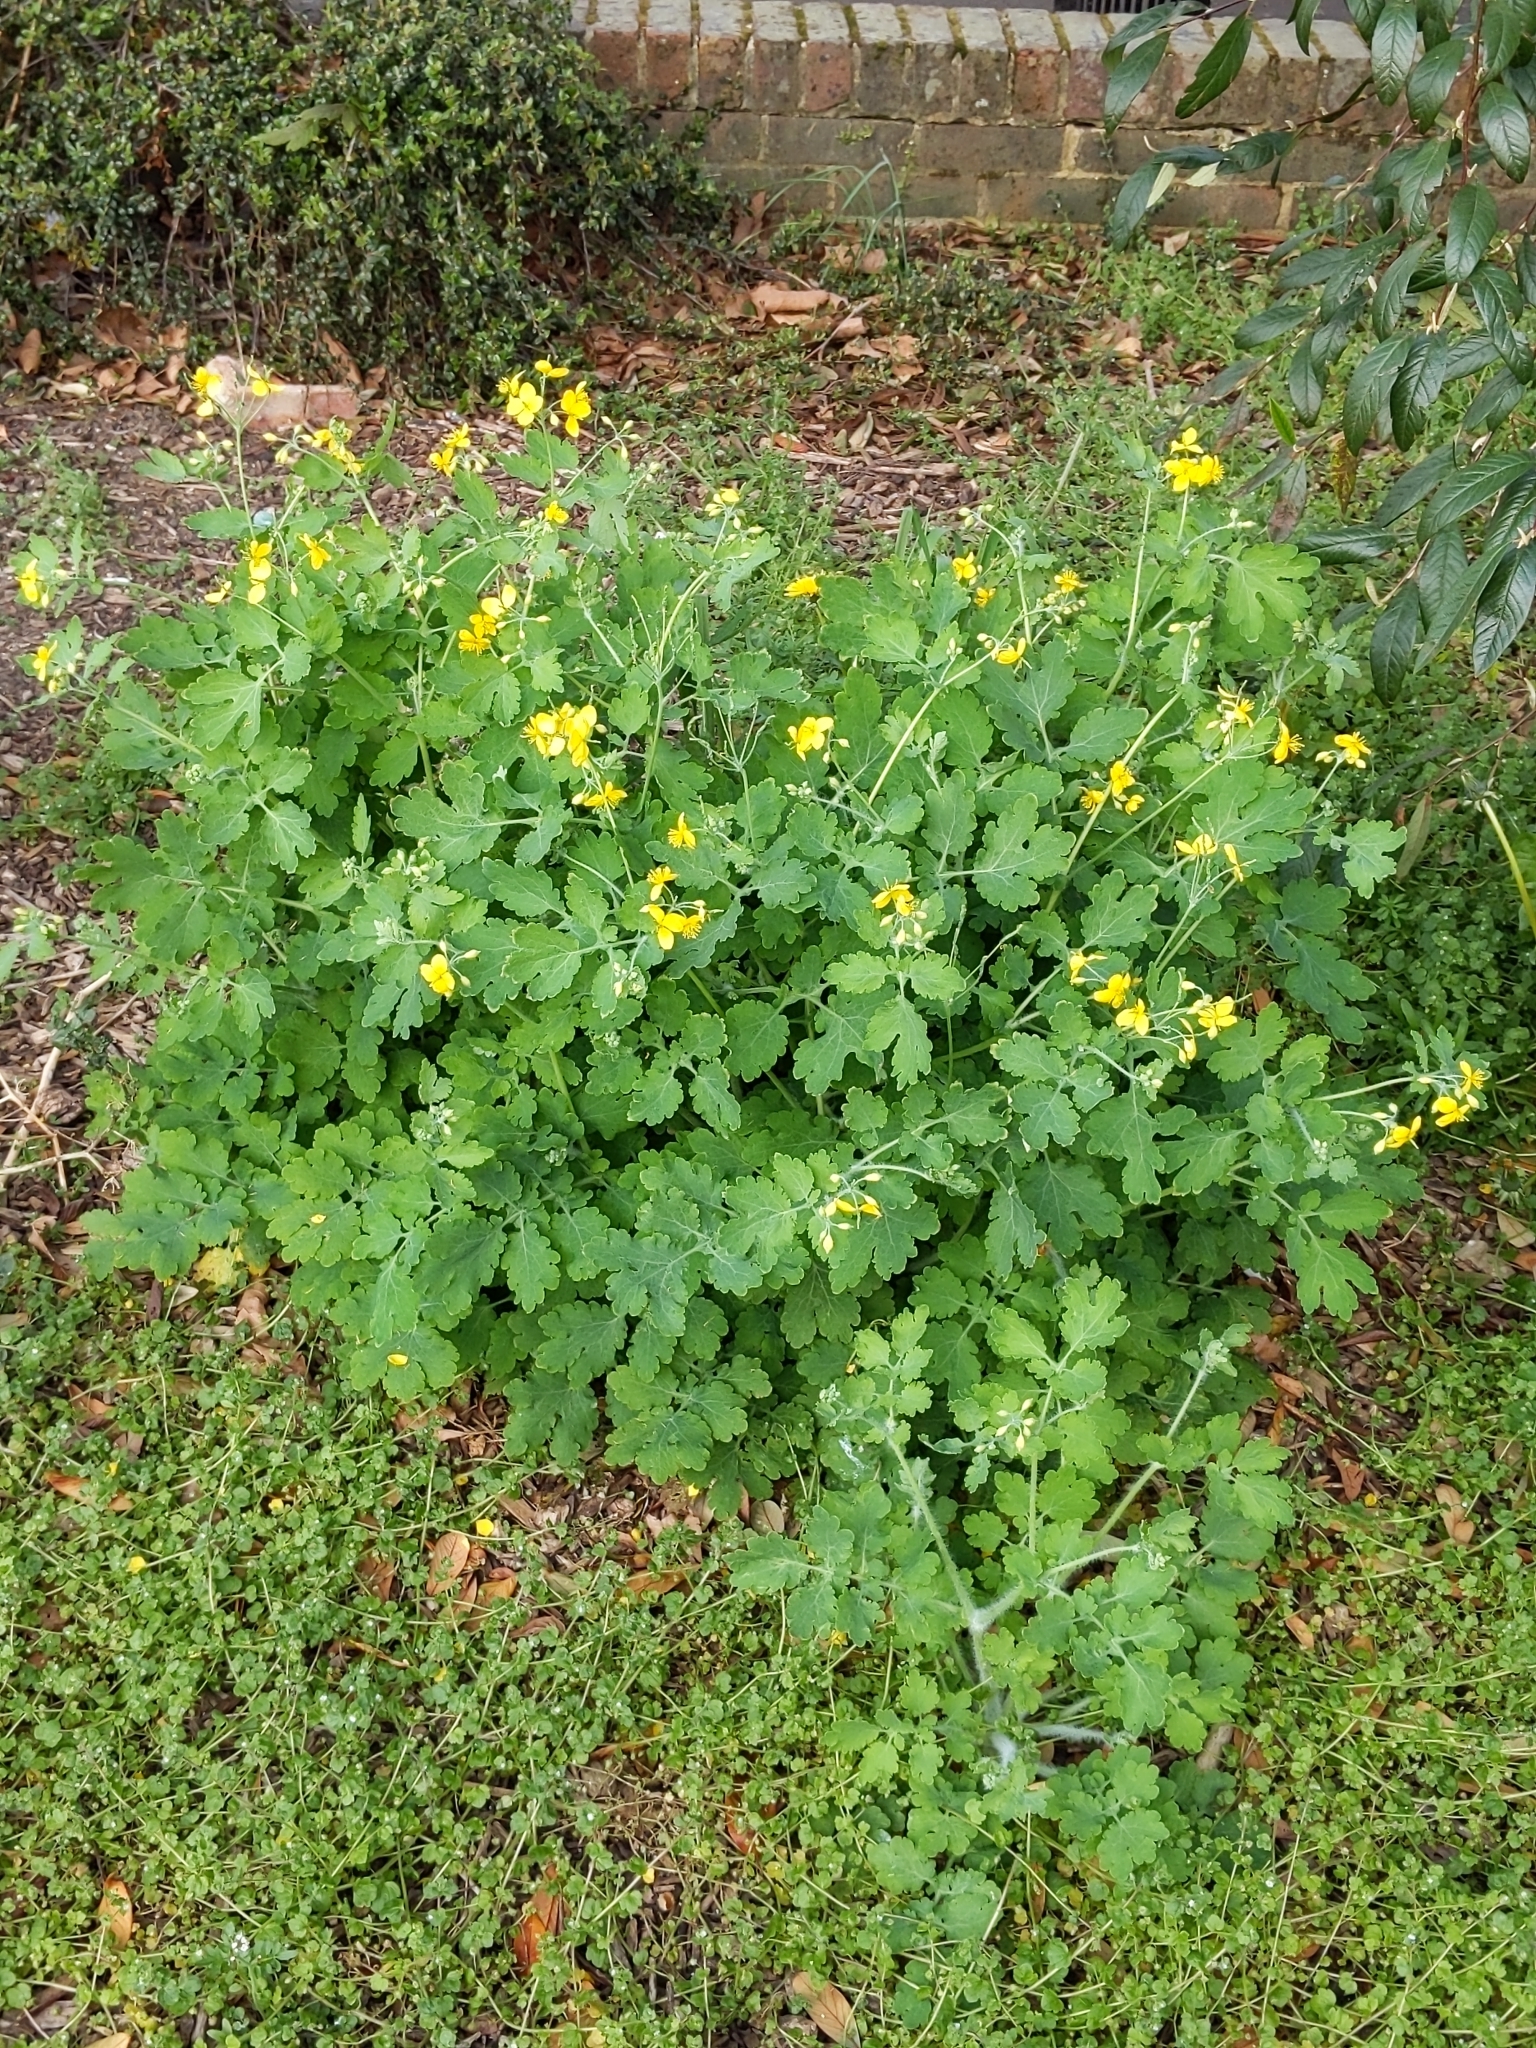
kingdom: Plantae
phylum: Tracheophyta
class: Magnoliopsida
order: Ranunculales
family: Papaveraceae
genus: Chelidonium
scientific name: Chelidonium majus
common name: Greater celandine
